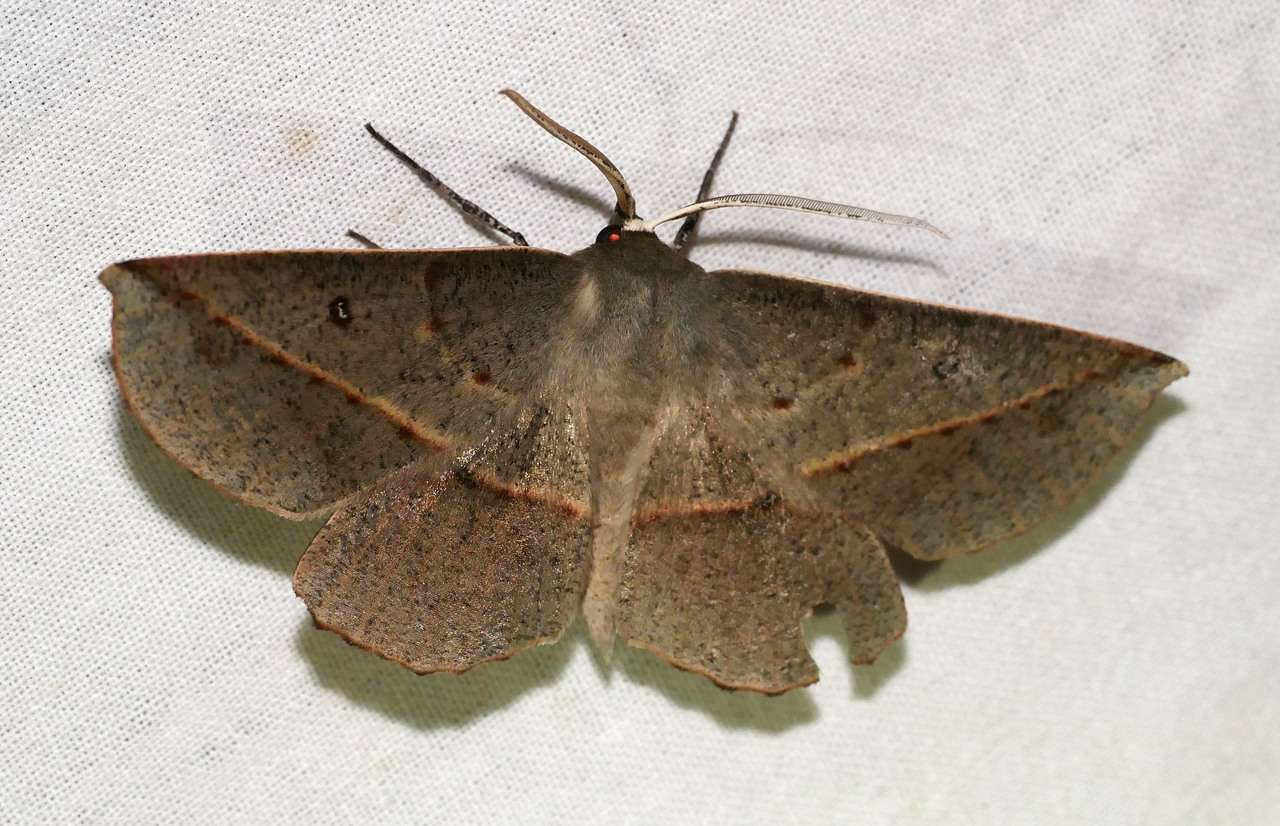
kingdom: Animalia
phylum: Arthropoda
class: Insecta
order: Lepidoptera
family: Geometridae
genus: Phallaria
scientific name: Phallaria ophiusaria
